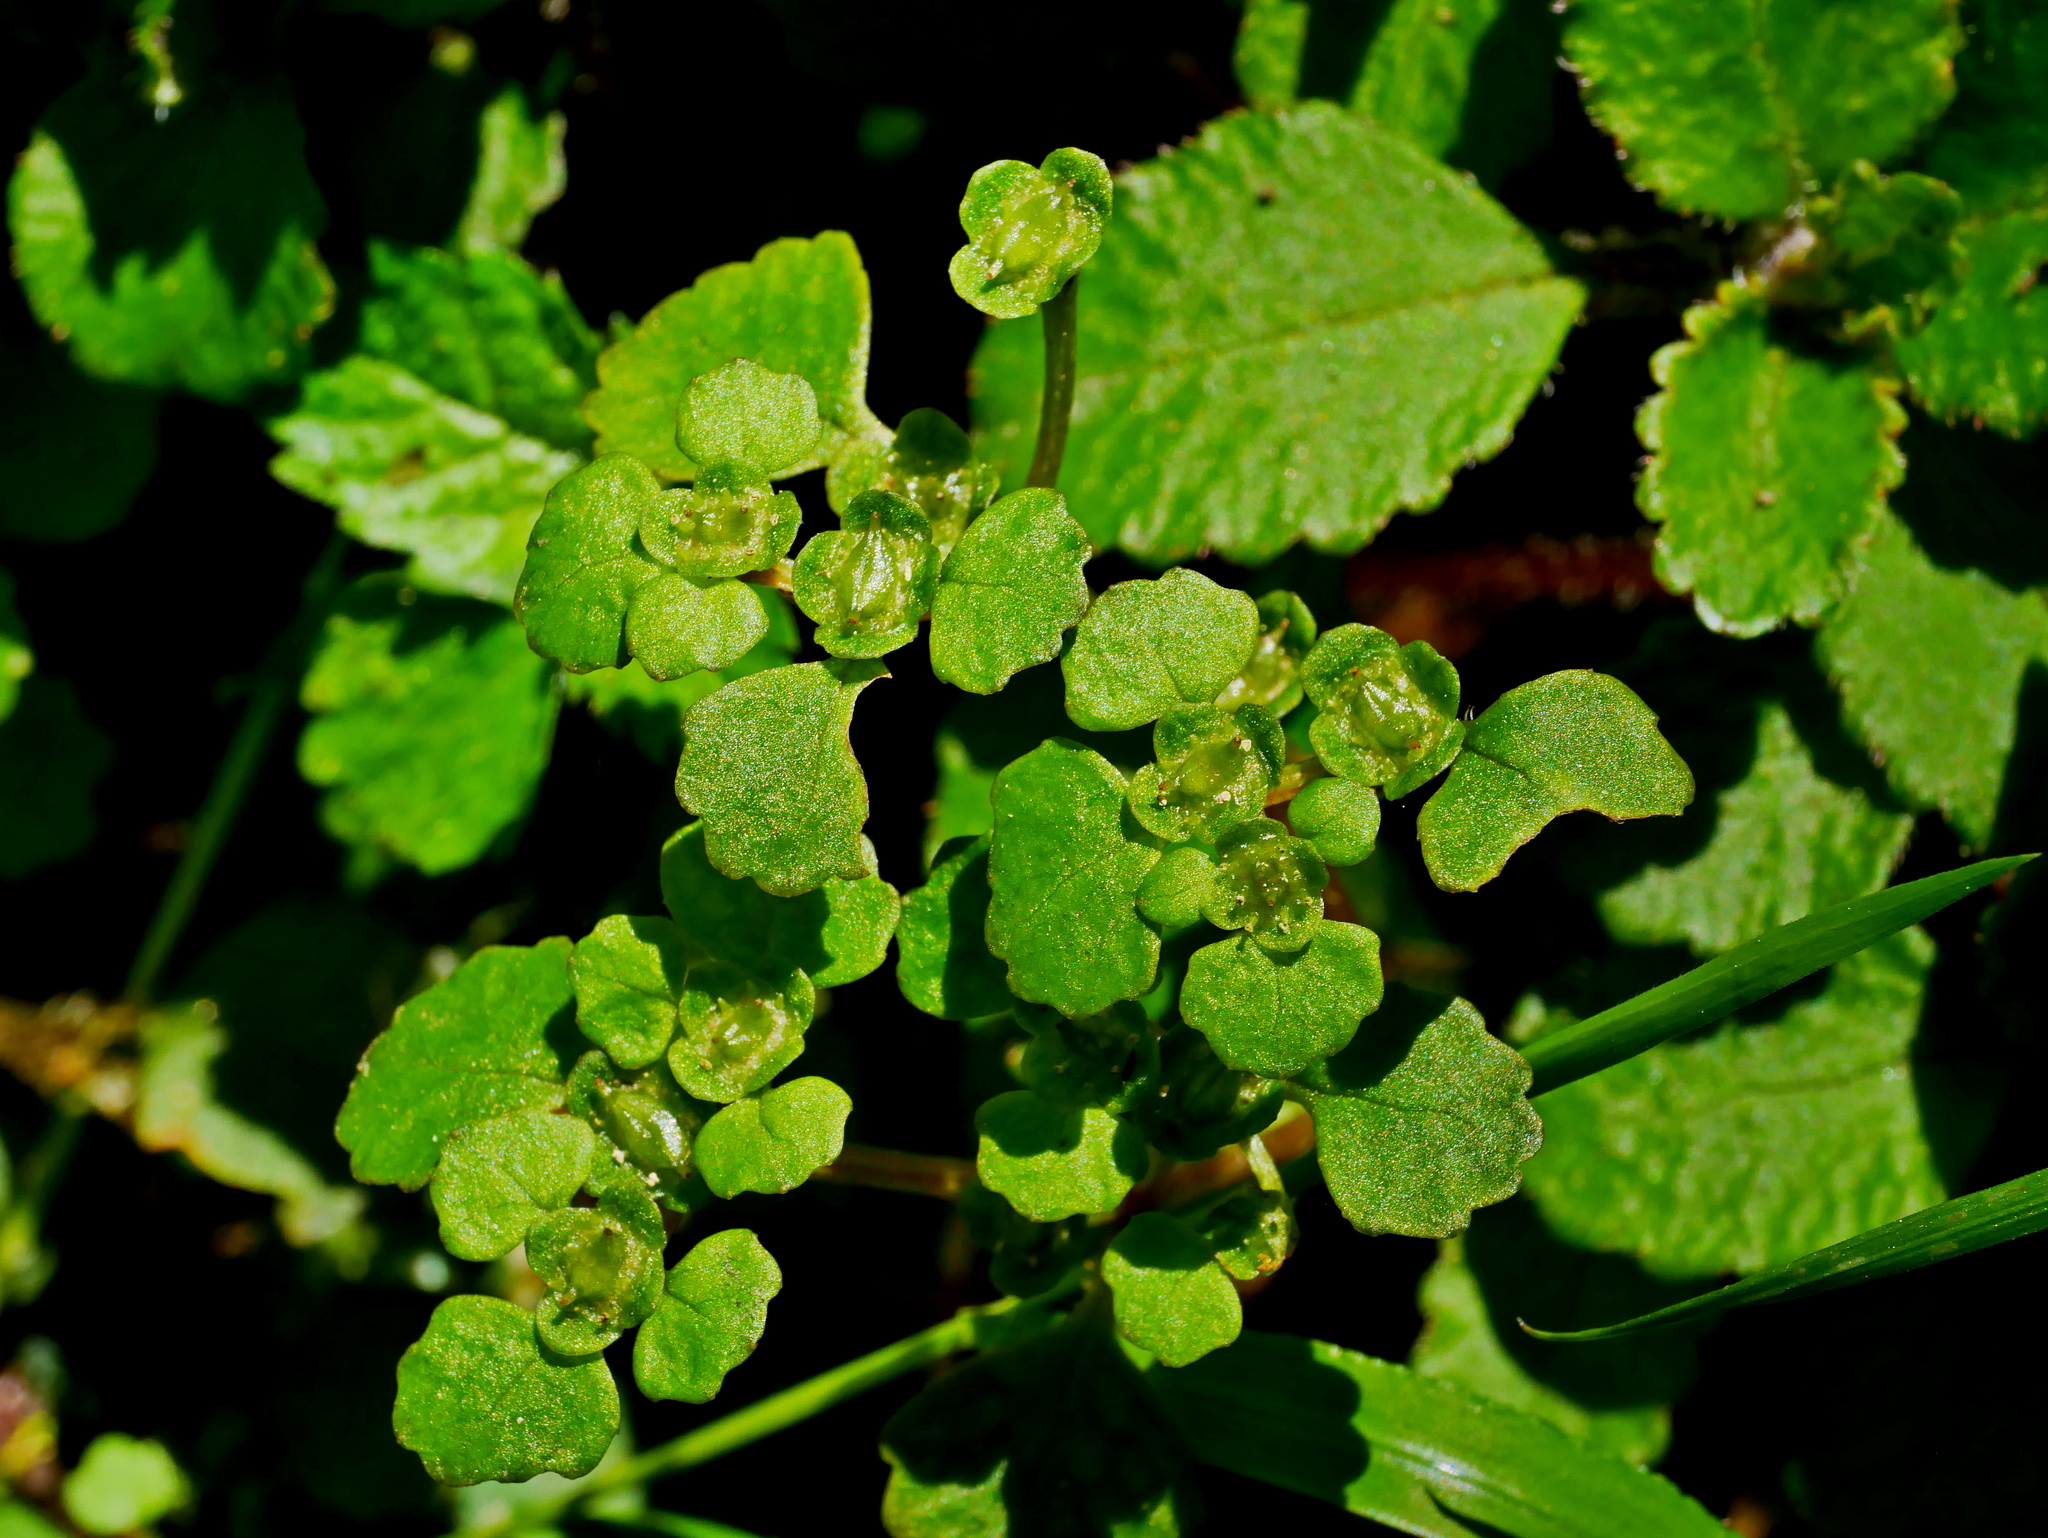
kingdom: Plantae
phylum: Tracheophyta
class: Magnoliopsida
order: Saxifragales
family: Saxifragaceae
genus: Chrysosplenium
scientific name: Chrysosplenium lanuginosum
